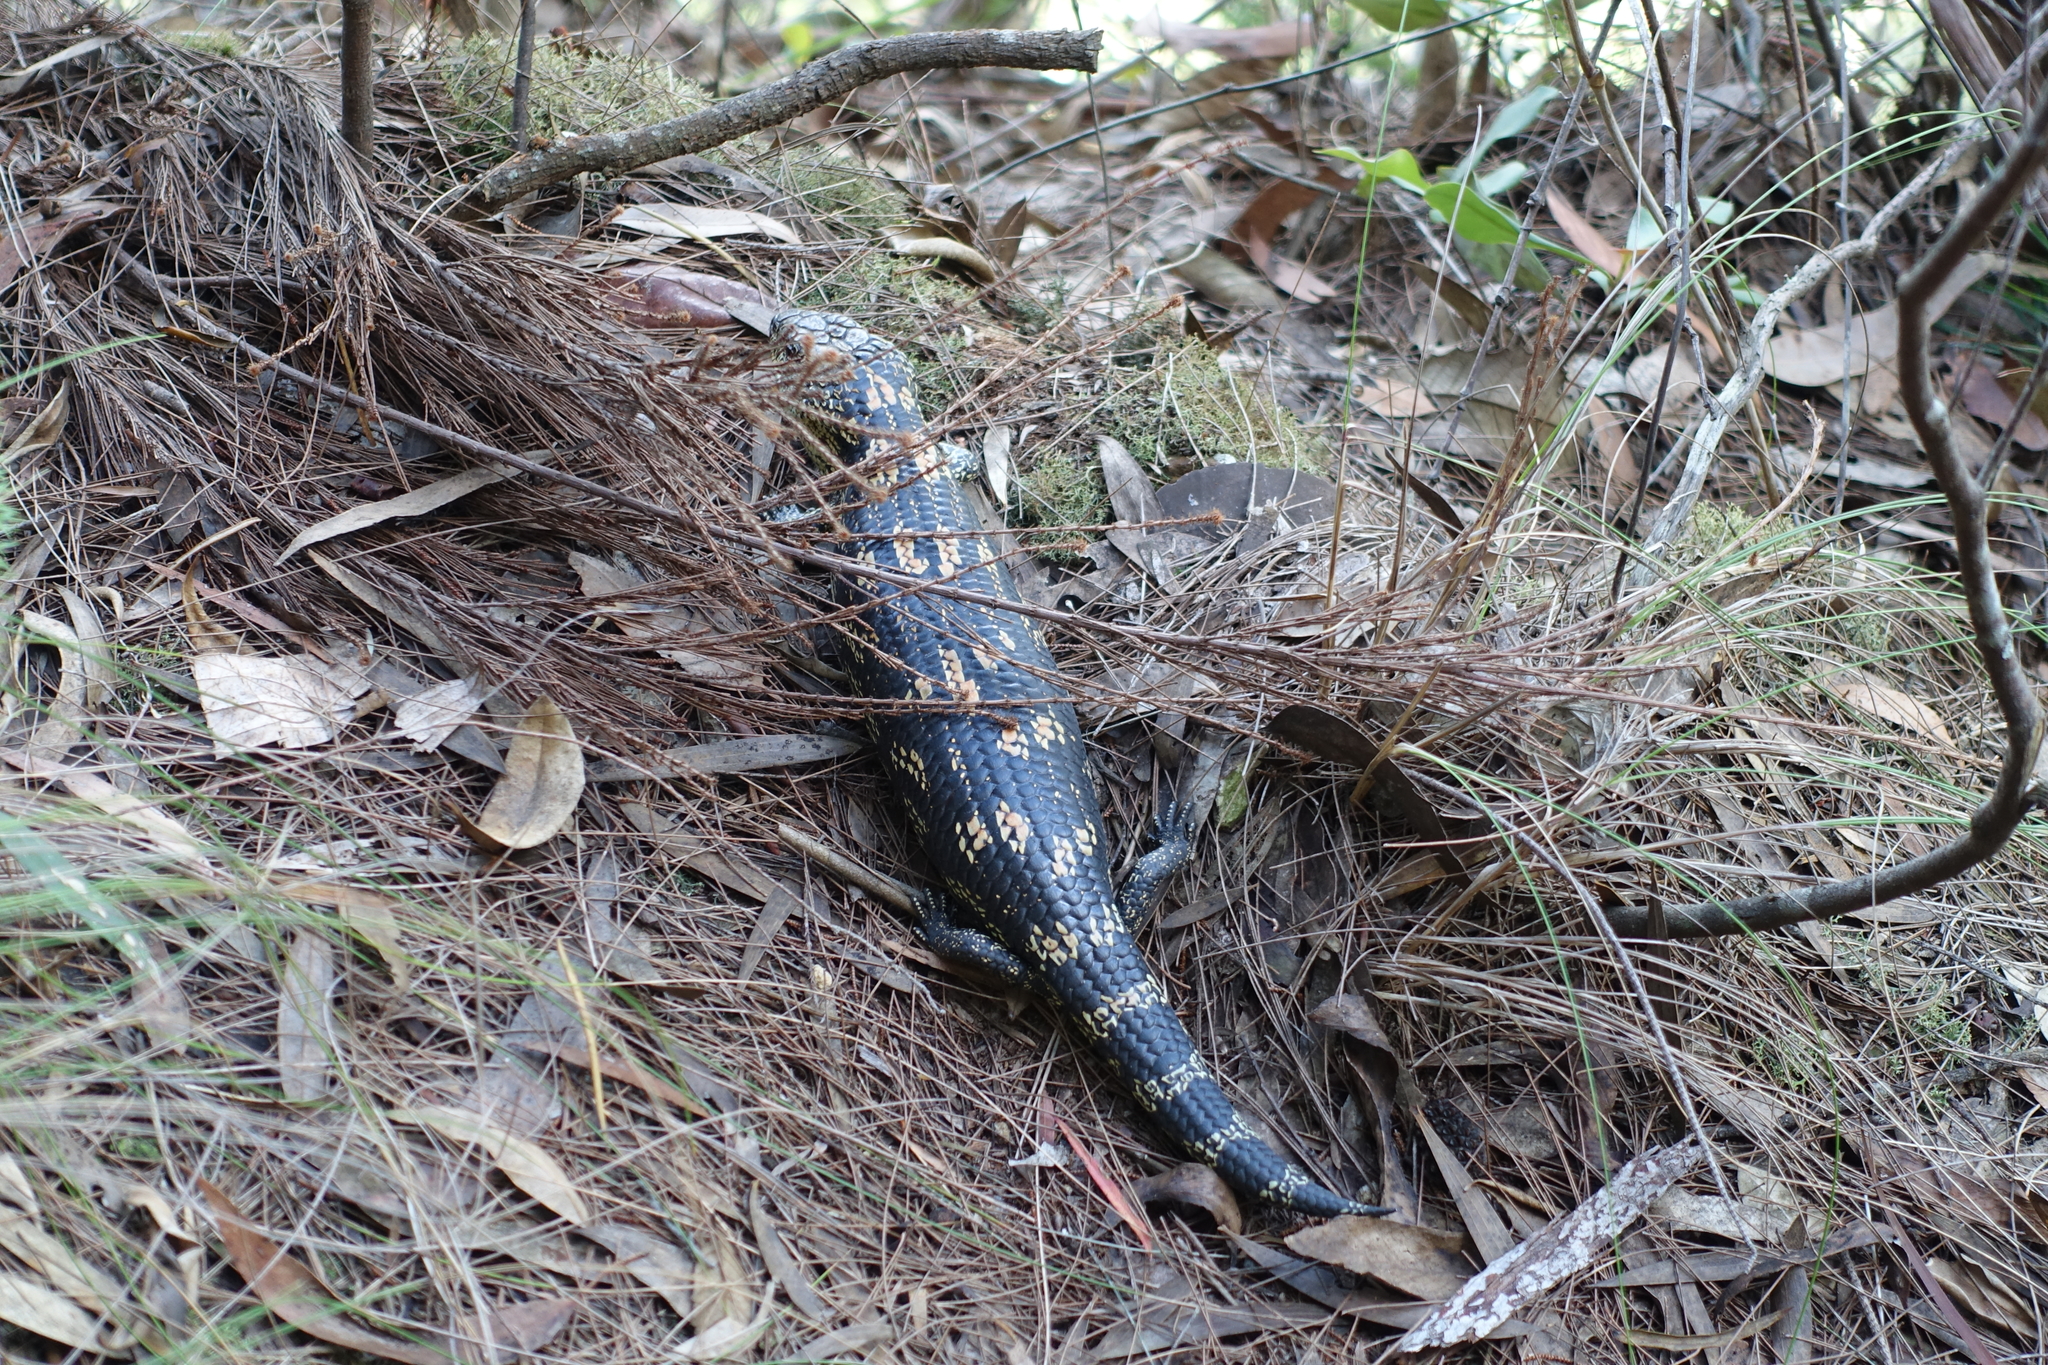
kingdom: Animalia
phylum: Chordata
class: Squamata
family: Scincidae
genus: Tiliqua
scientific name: Tiliqua nigrolutea
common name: Blotched blue-tongued lizard
